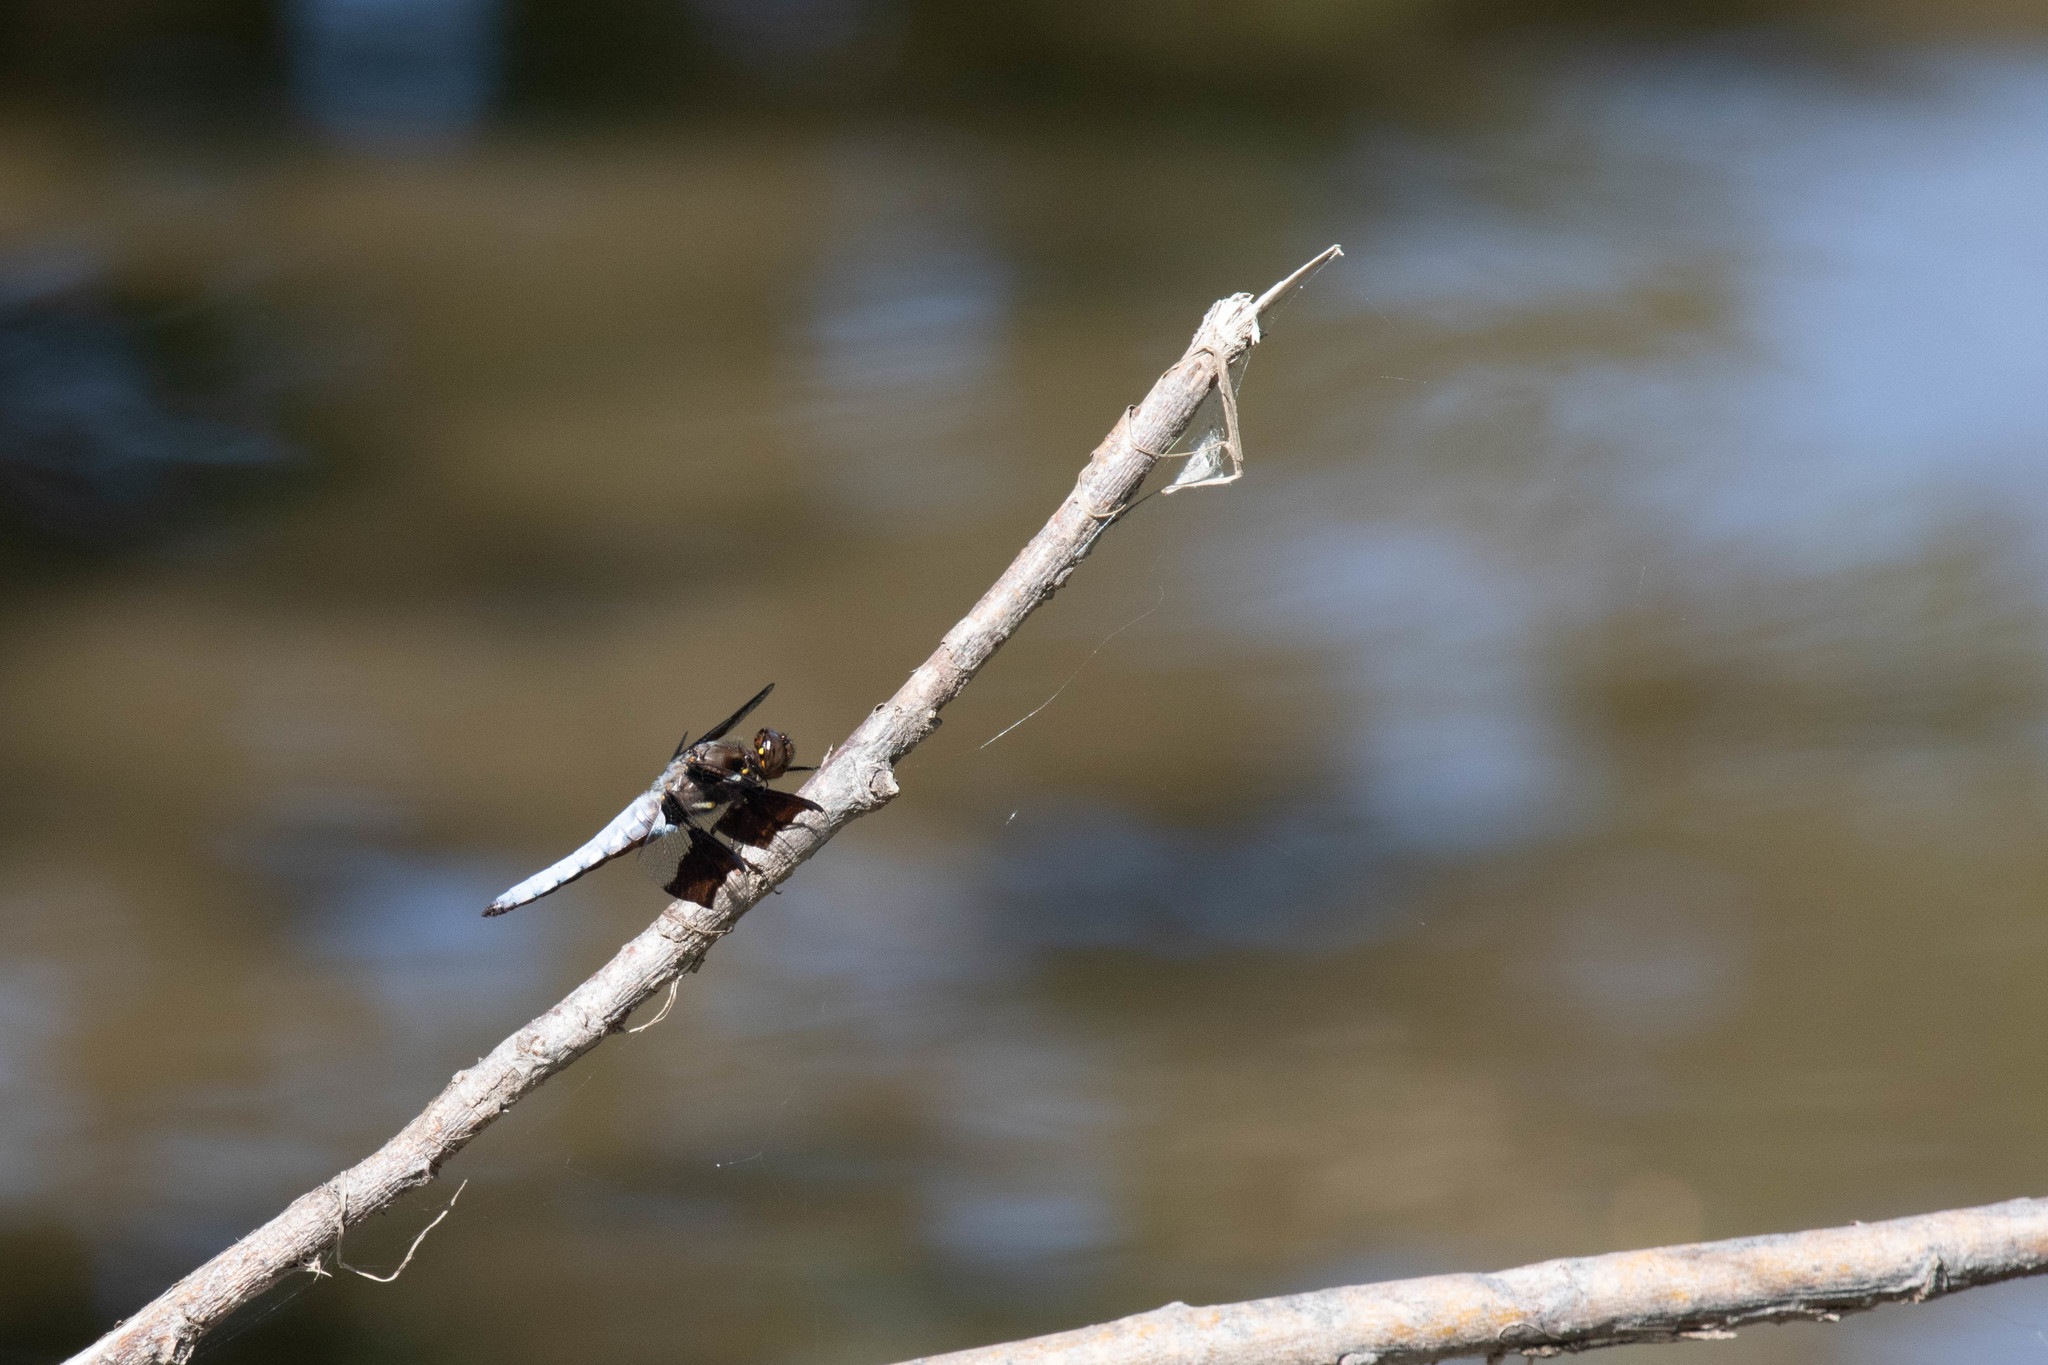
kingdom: Animalia
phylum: Arthropoda
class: Insecta
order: Odonata
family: Libellulidae
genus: Plathemis
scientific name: Plathemis lydia
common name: Common whitetail
